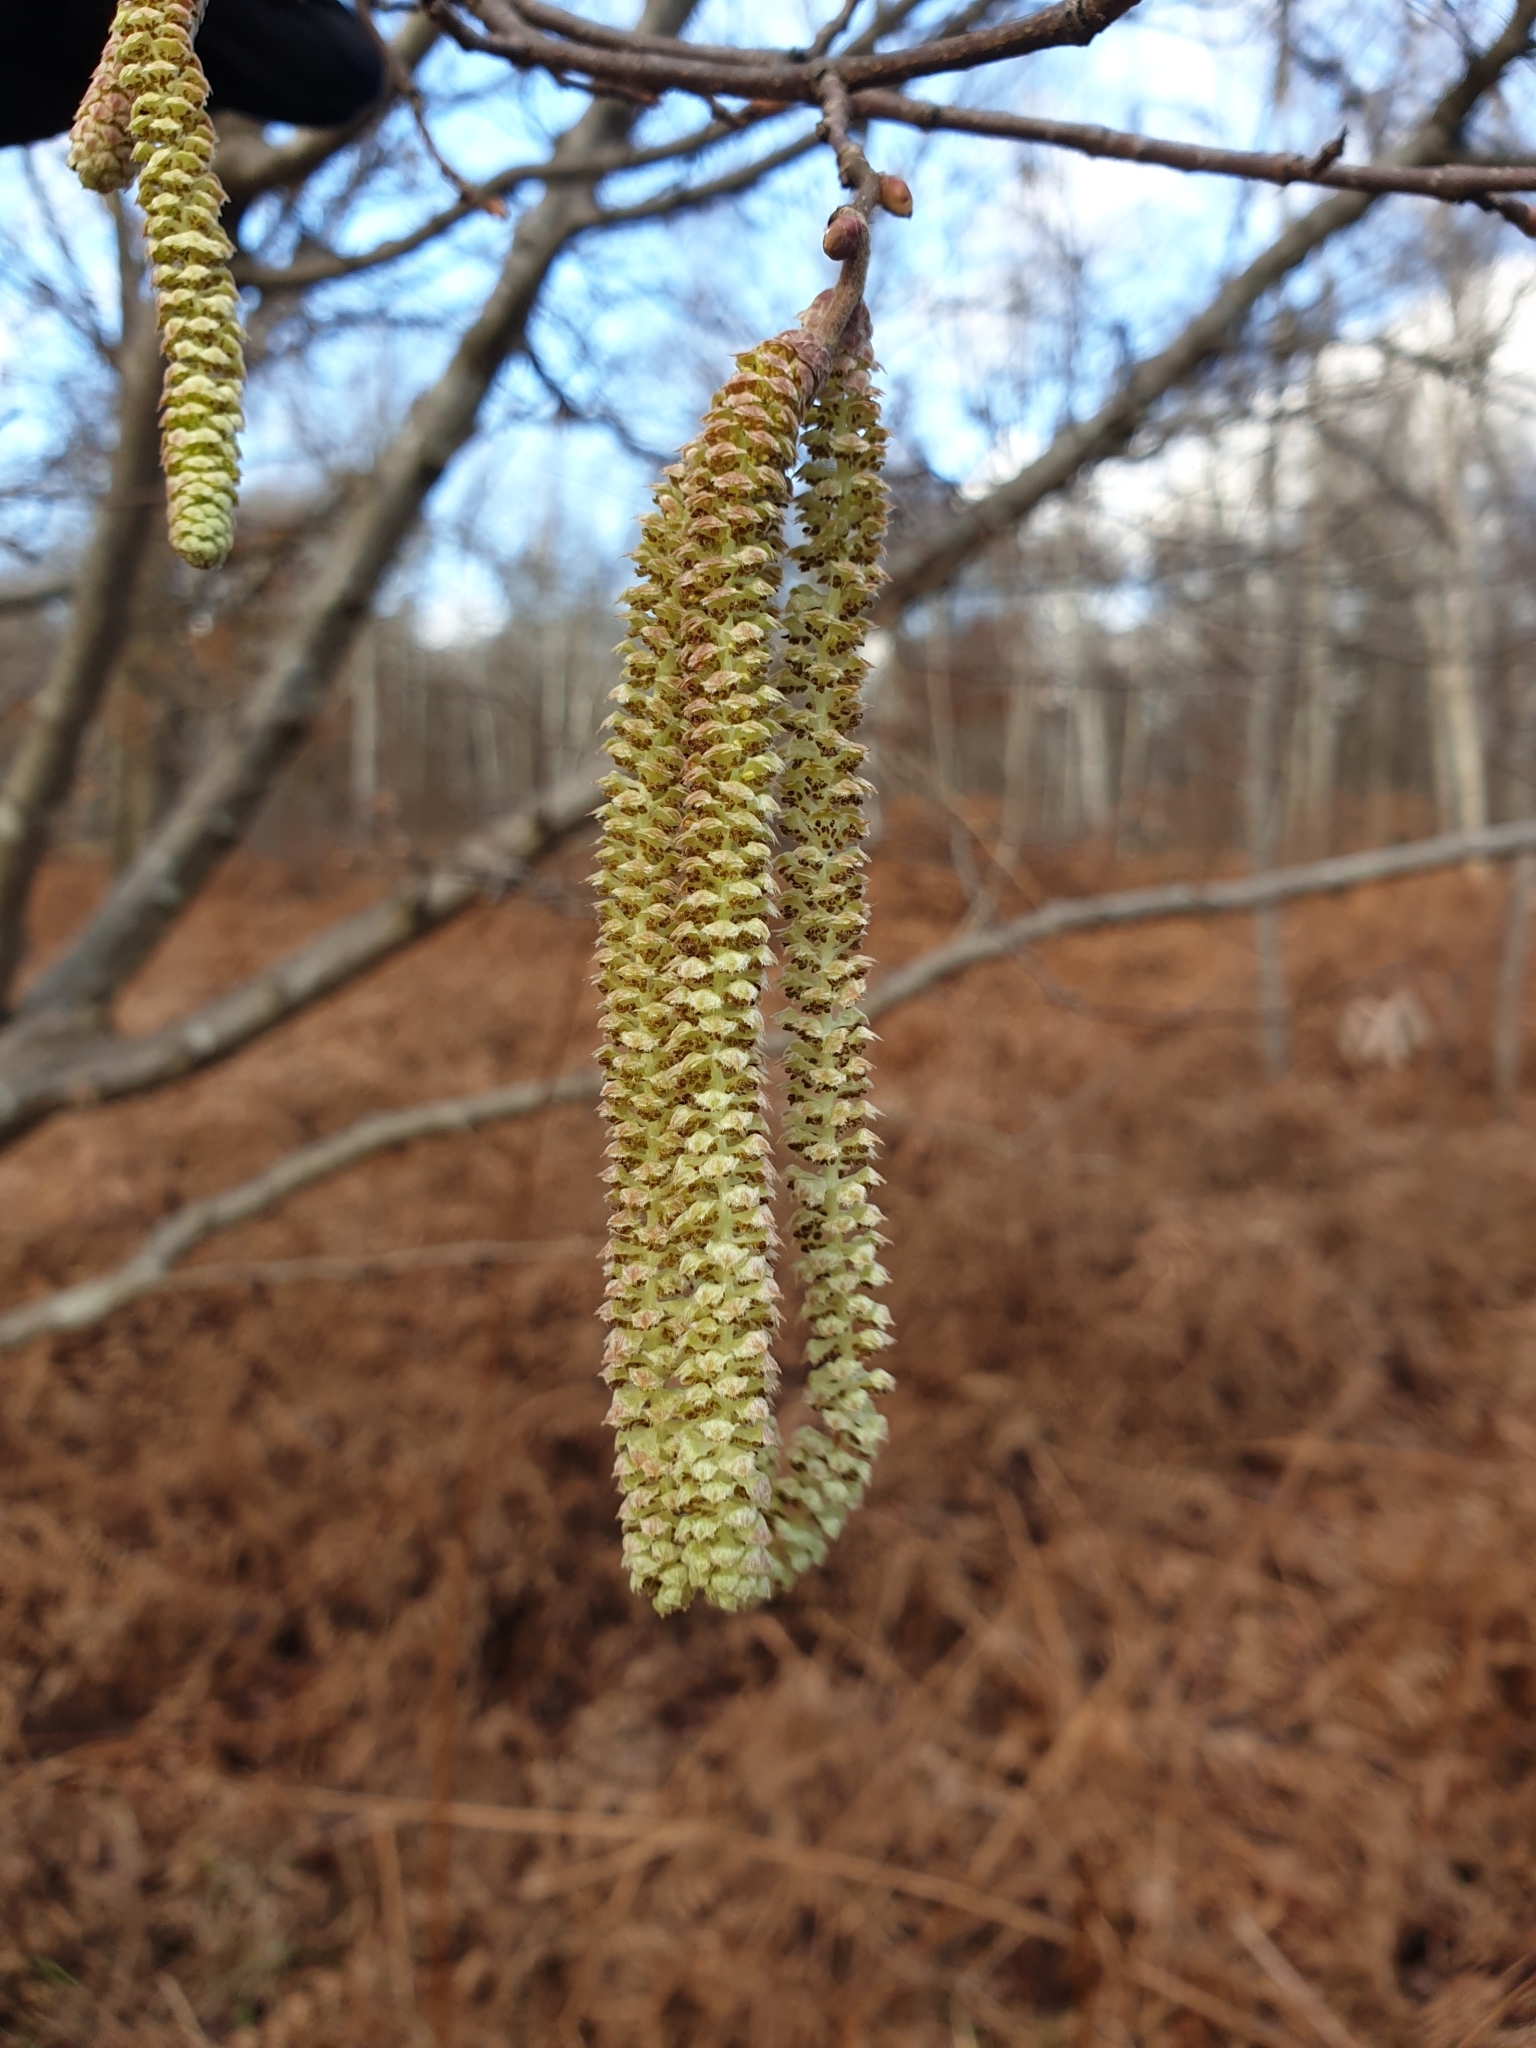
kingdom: Plantae
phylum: Tracheophyta
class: Magnoliopsida
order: Fagales
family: Betulaceae
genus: Corylus
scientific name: Corylus avellana
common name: European hazel
